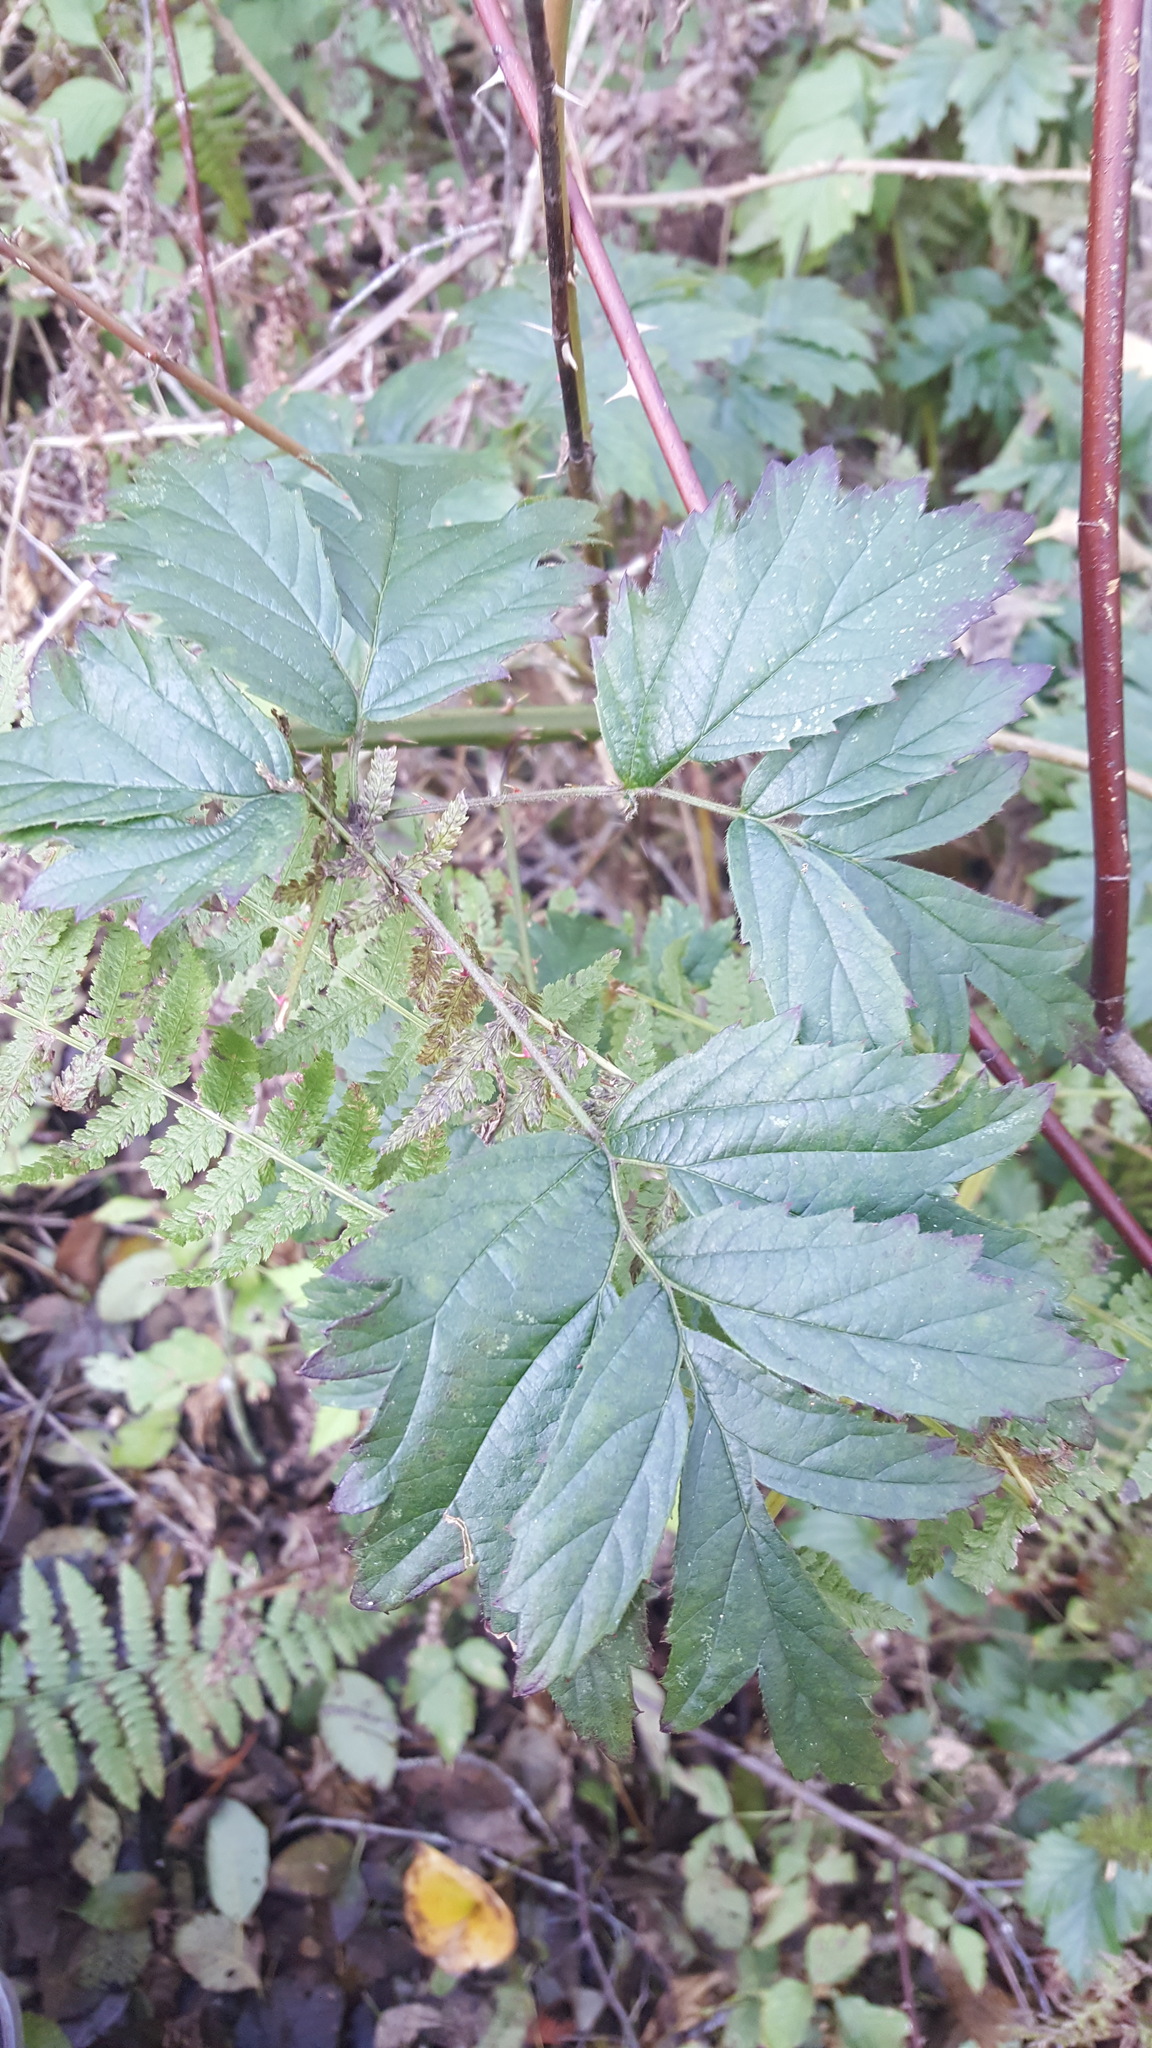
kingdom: Plantae
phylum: Tracheophyta
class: Magnoliopsida
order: Rosales
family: Rosaceae
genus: Rubus
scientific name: Rubus laciniatus
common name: Evergreen blackberry
